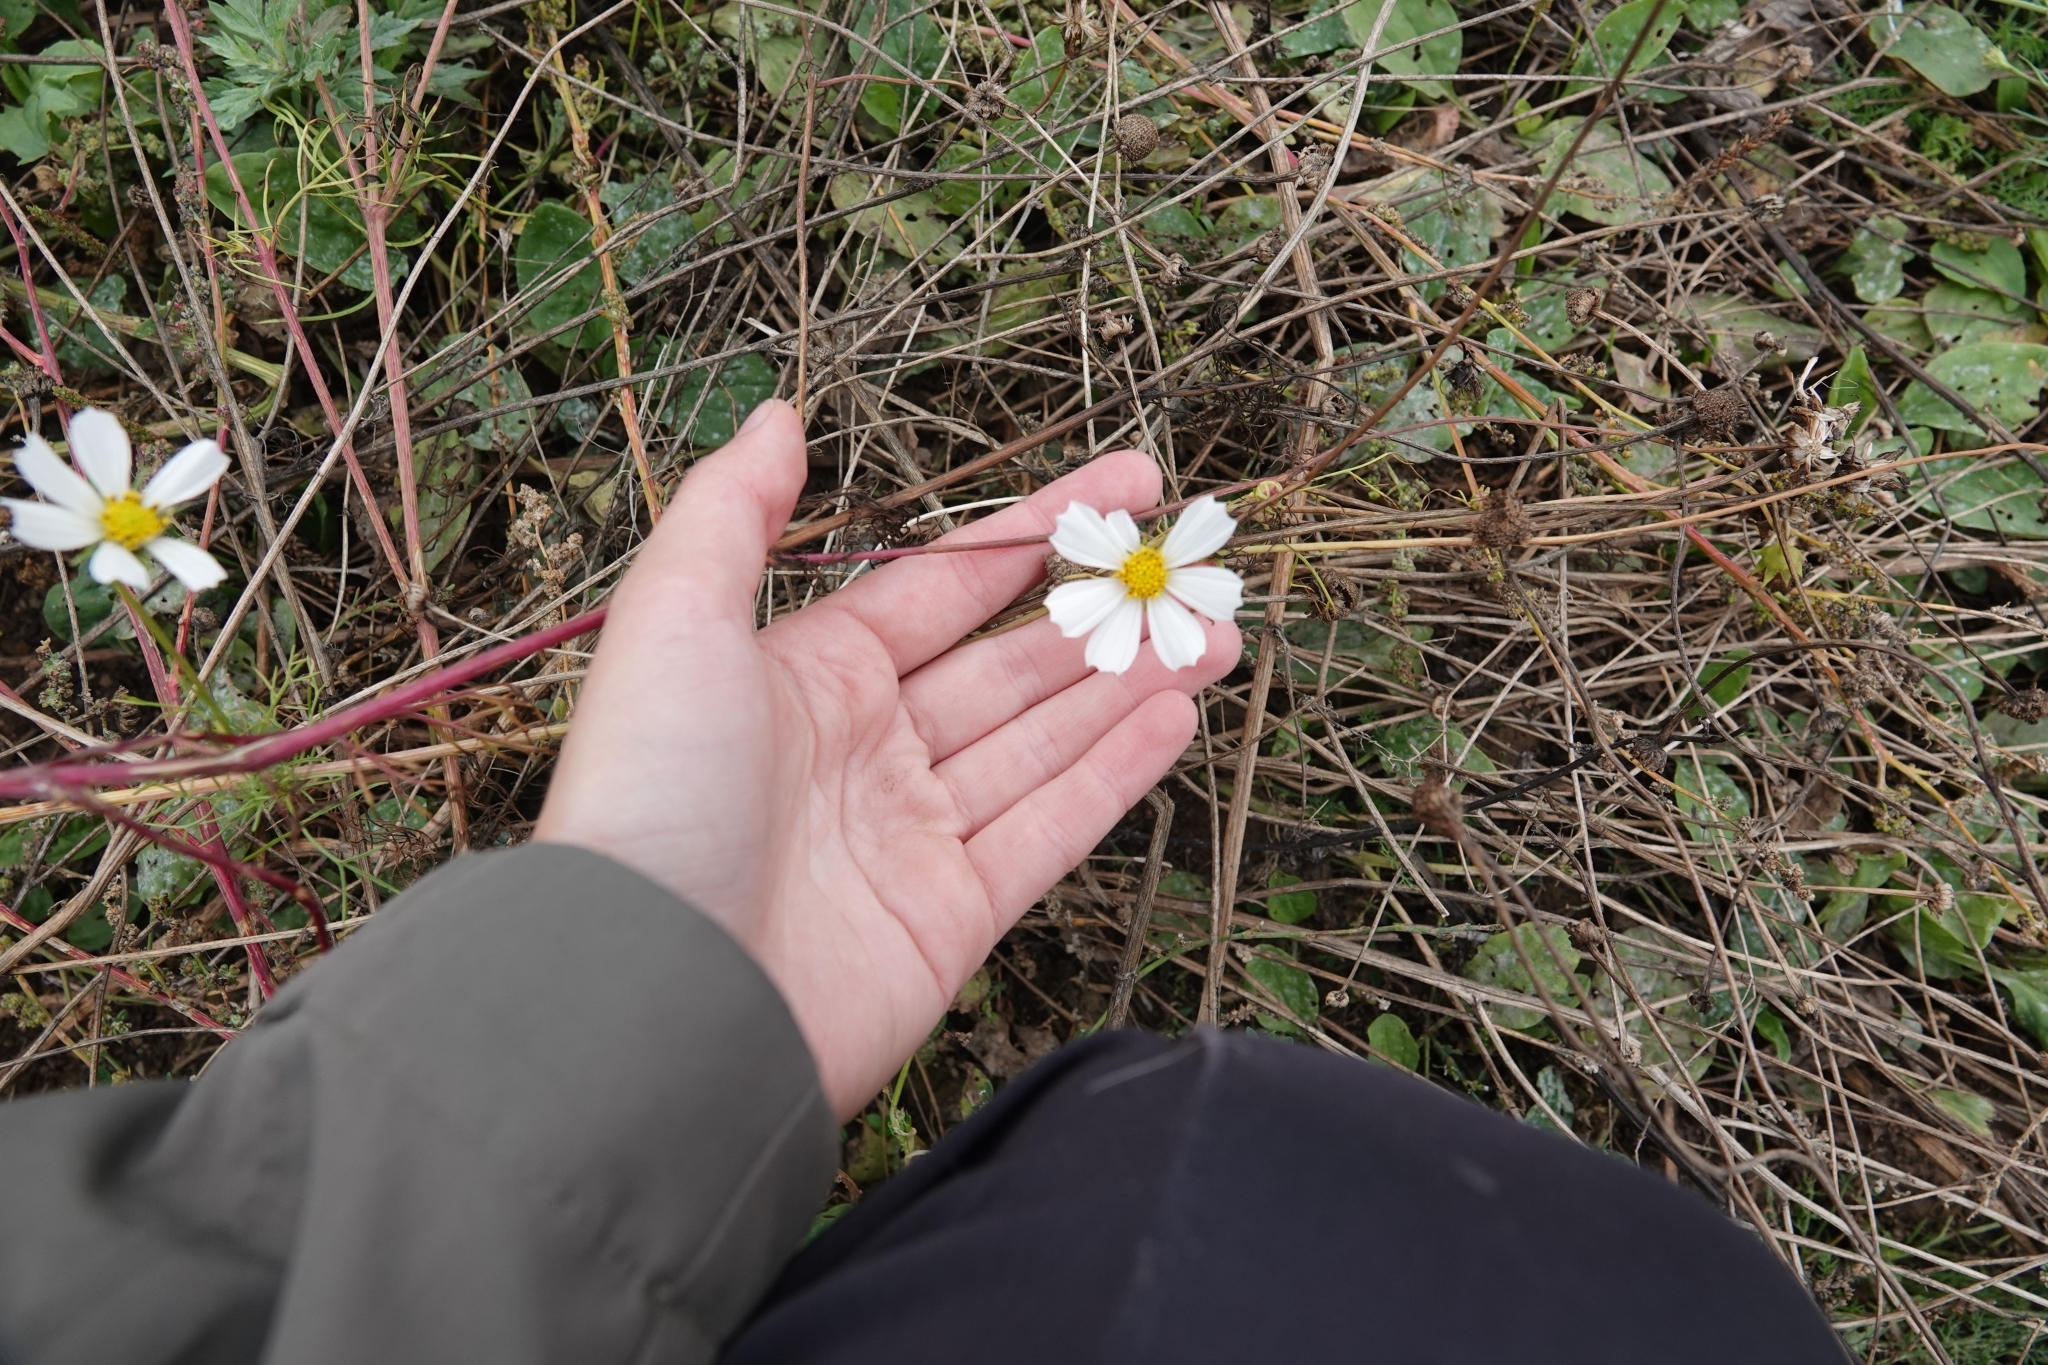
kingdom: Plantae
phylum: Tracheophyta
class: Magnoliopsida
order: Asterales
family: Asteraceae
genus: Cosmos
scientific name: Cosmos bipinnatus
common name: Garden cosmos
